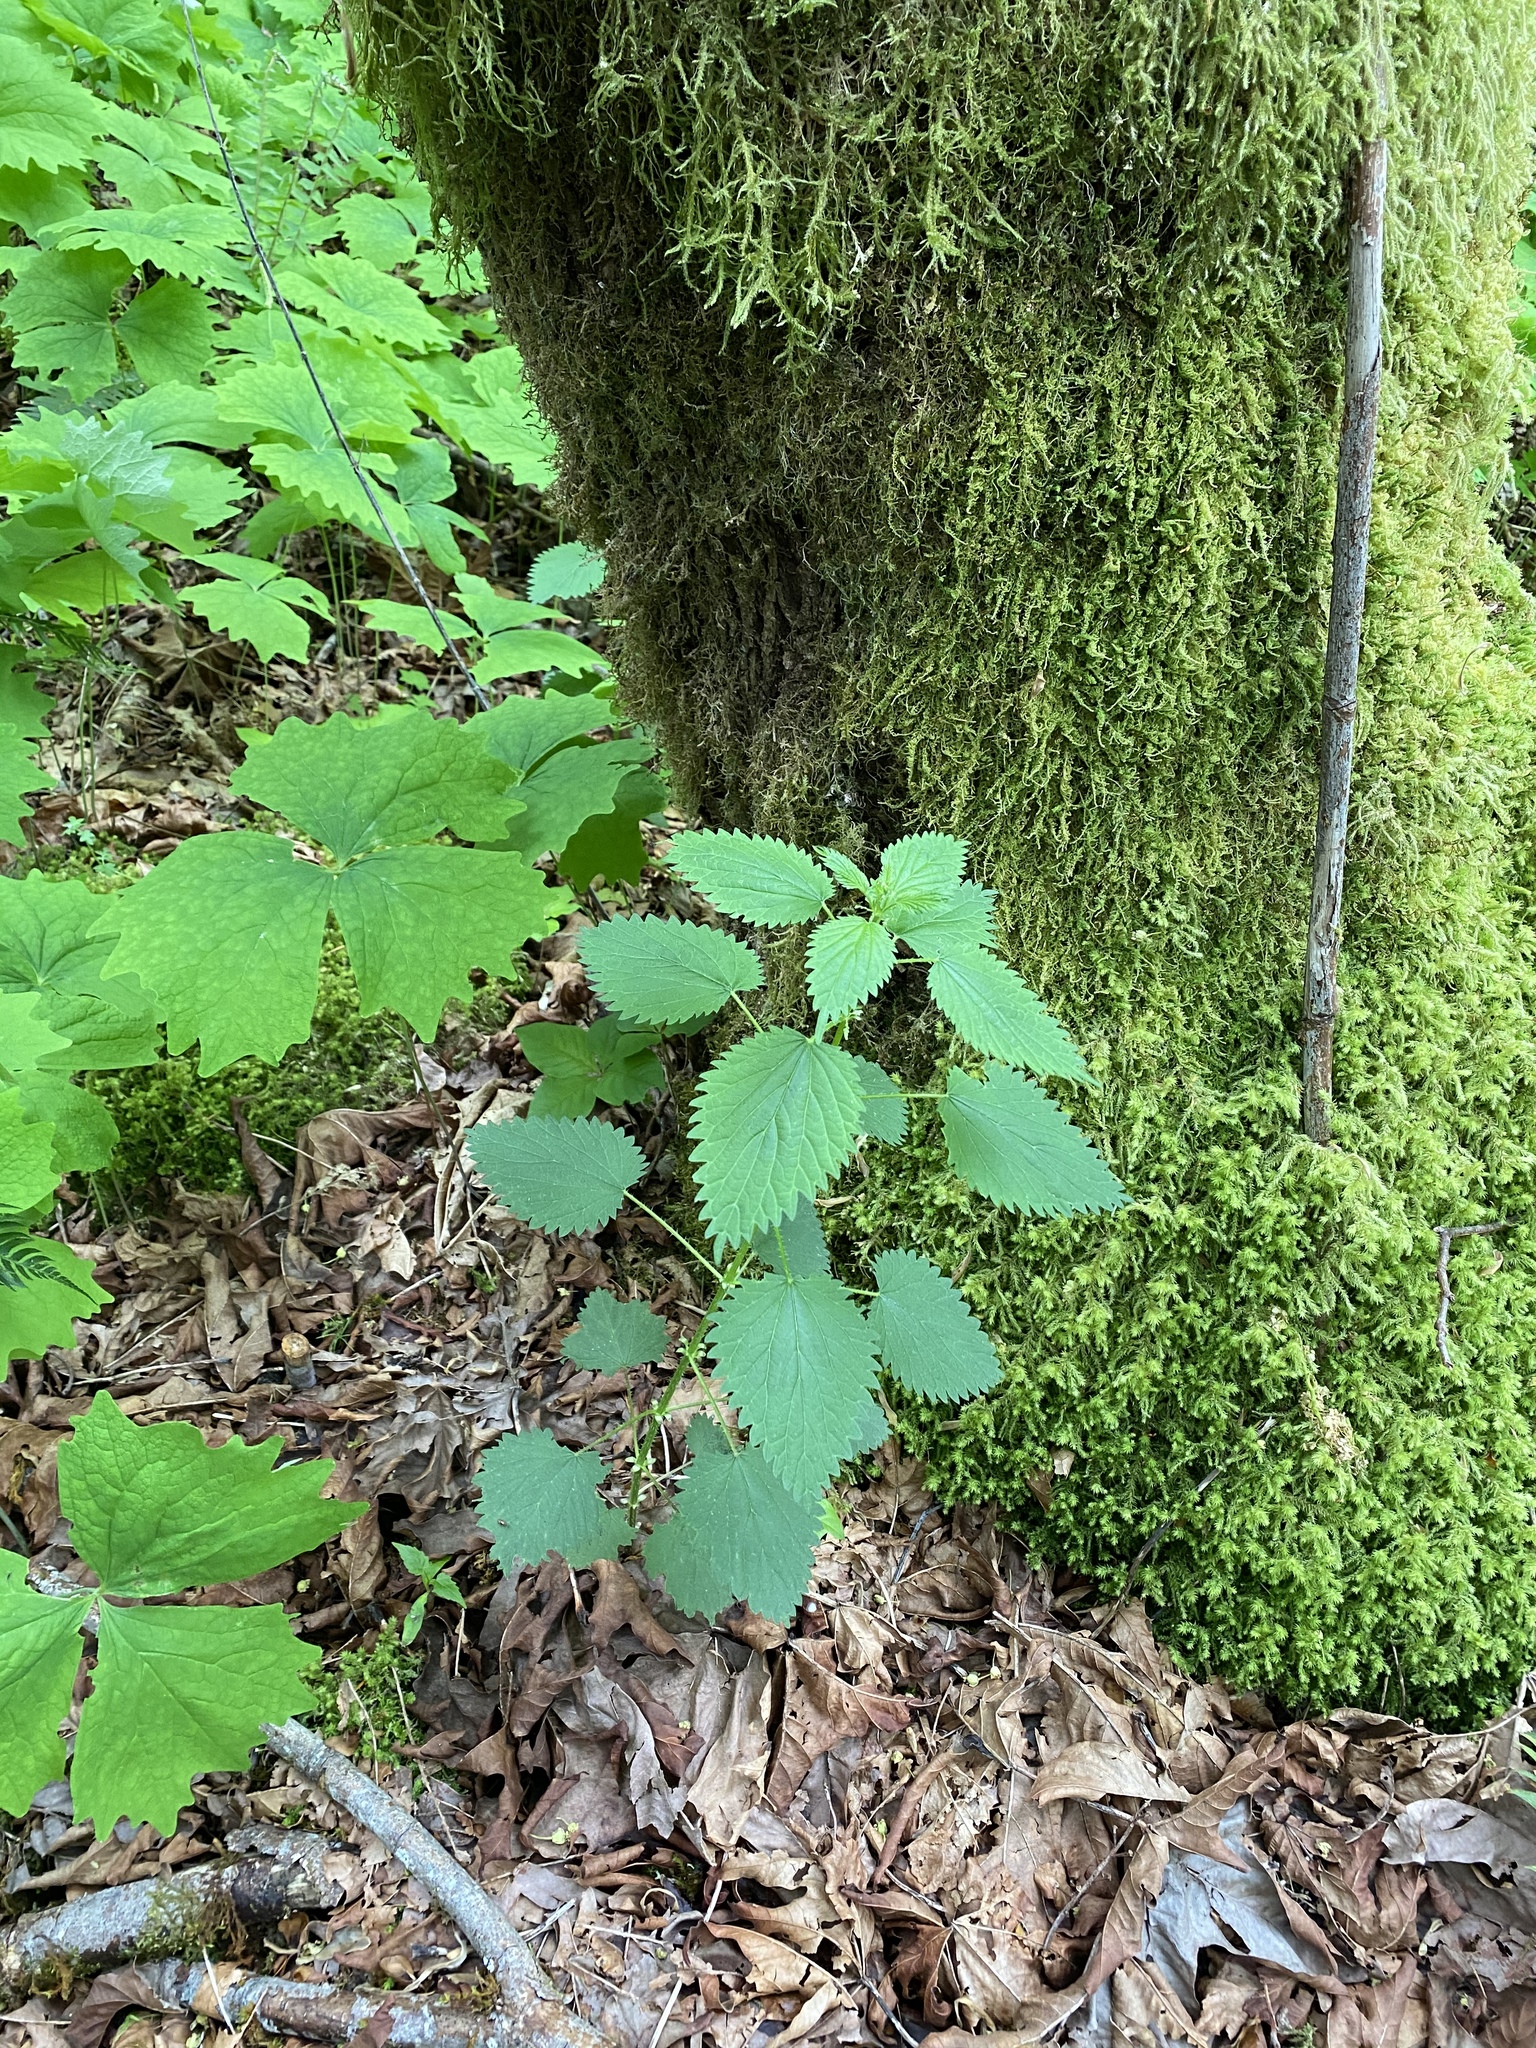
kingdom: Plantae
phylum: Tracheophyta
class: Magnoliopsida
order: Rosales
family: Urticaceae
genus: Urtica
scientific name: Urtica dioica
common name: Common nettle
